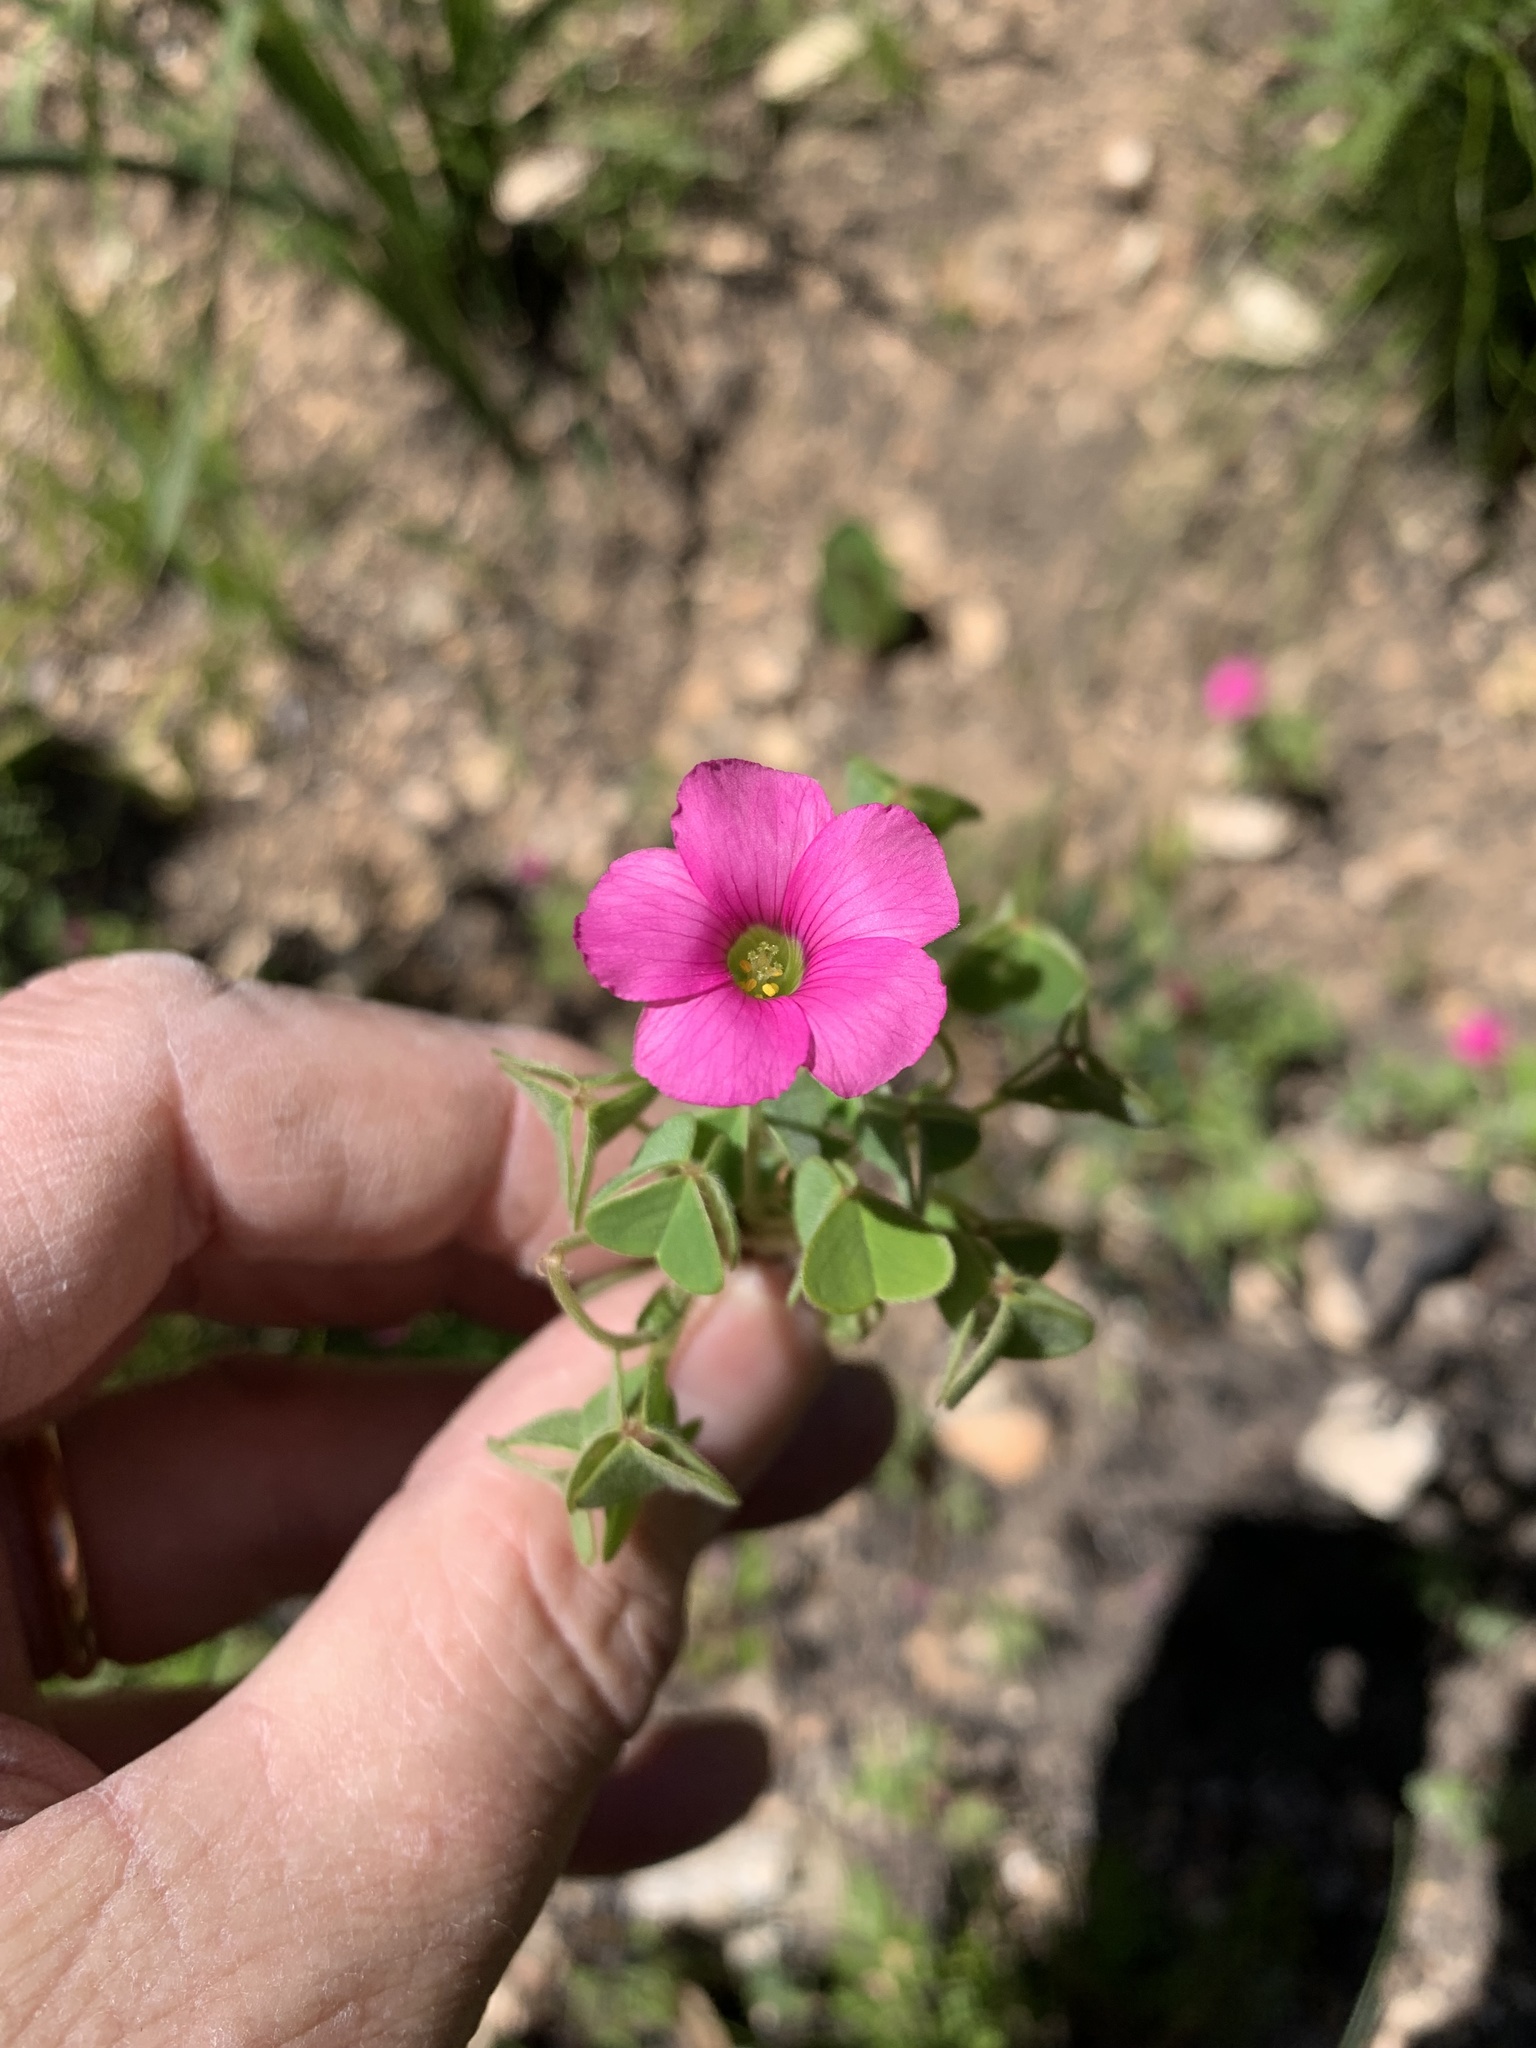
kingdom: Plantae
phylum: Tracheophyta
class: Magnoliopsida
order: Oxalidales
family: Oxalidaceae
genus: Oxalis
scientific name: Oxalis lanata
